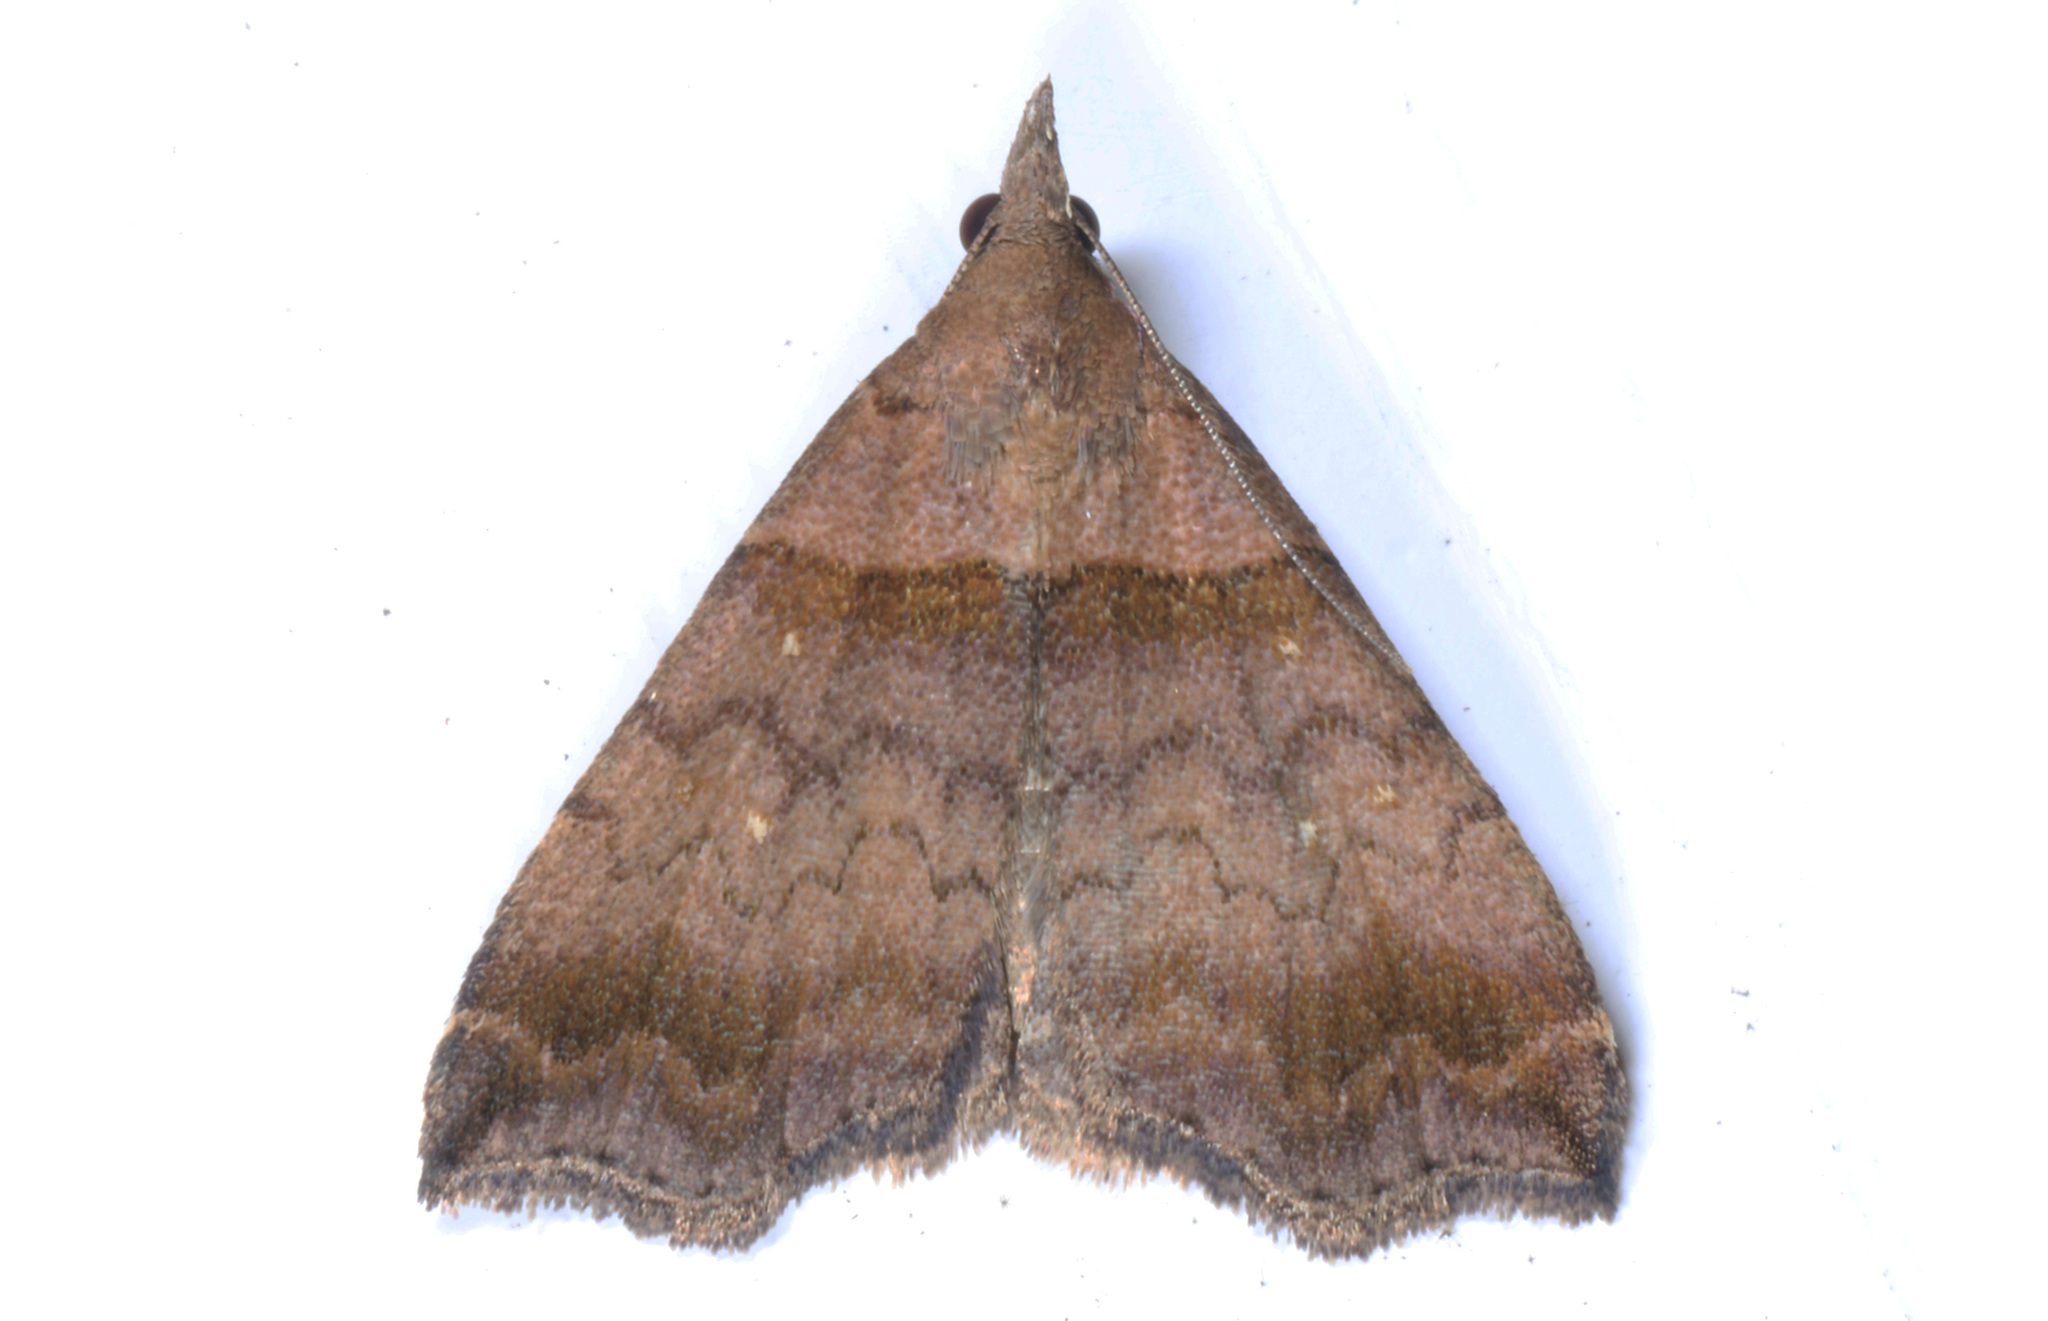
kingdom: Animalia
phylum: Arthropoda
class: Insecta
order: Lepidoptera
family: Erebidae
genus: Lascoria
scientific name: Lascoria ambigualis
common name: Ambiguous moth
